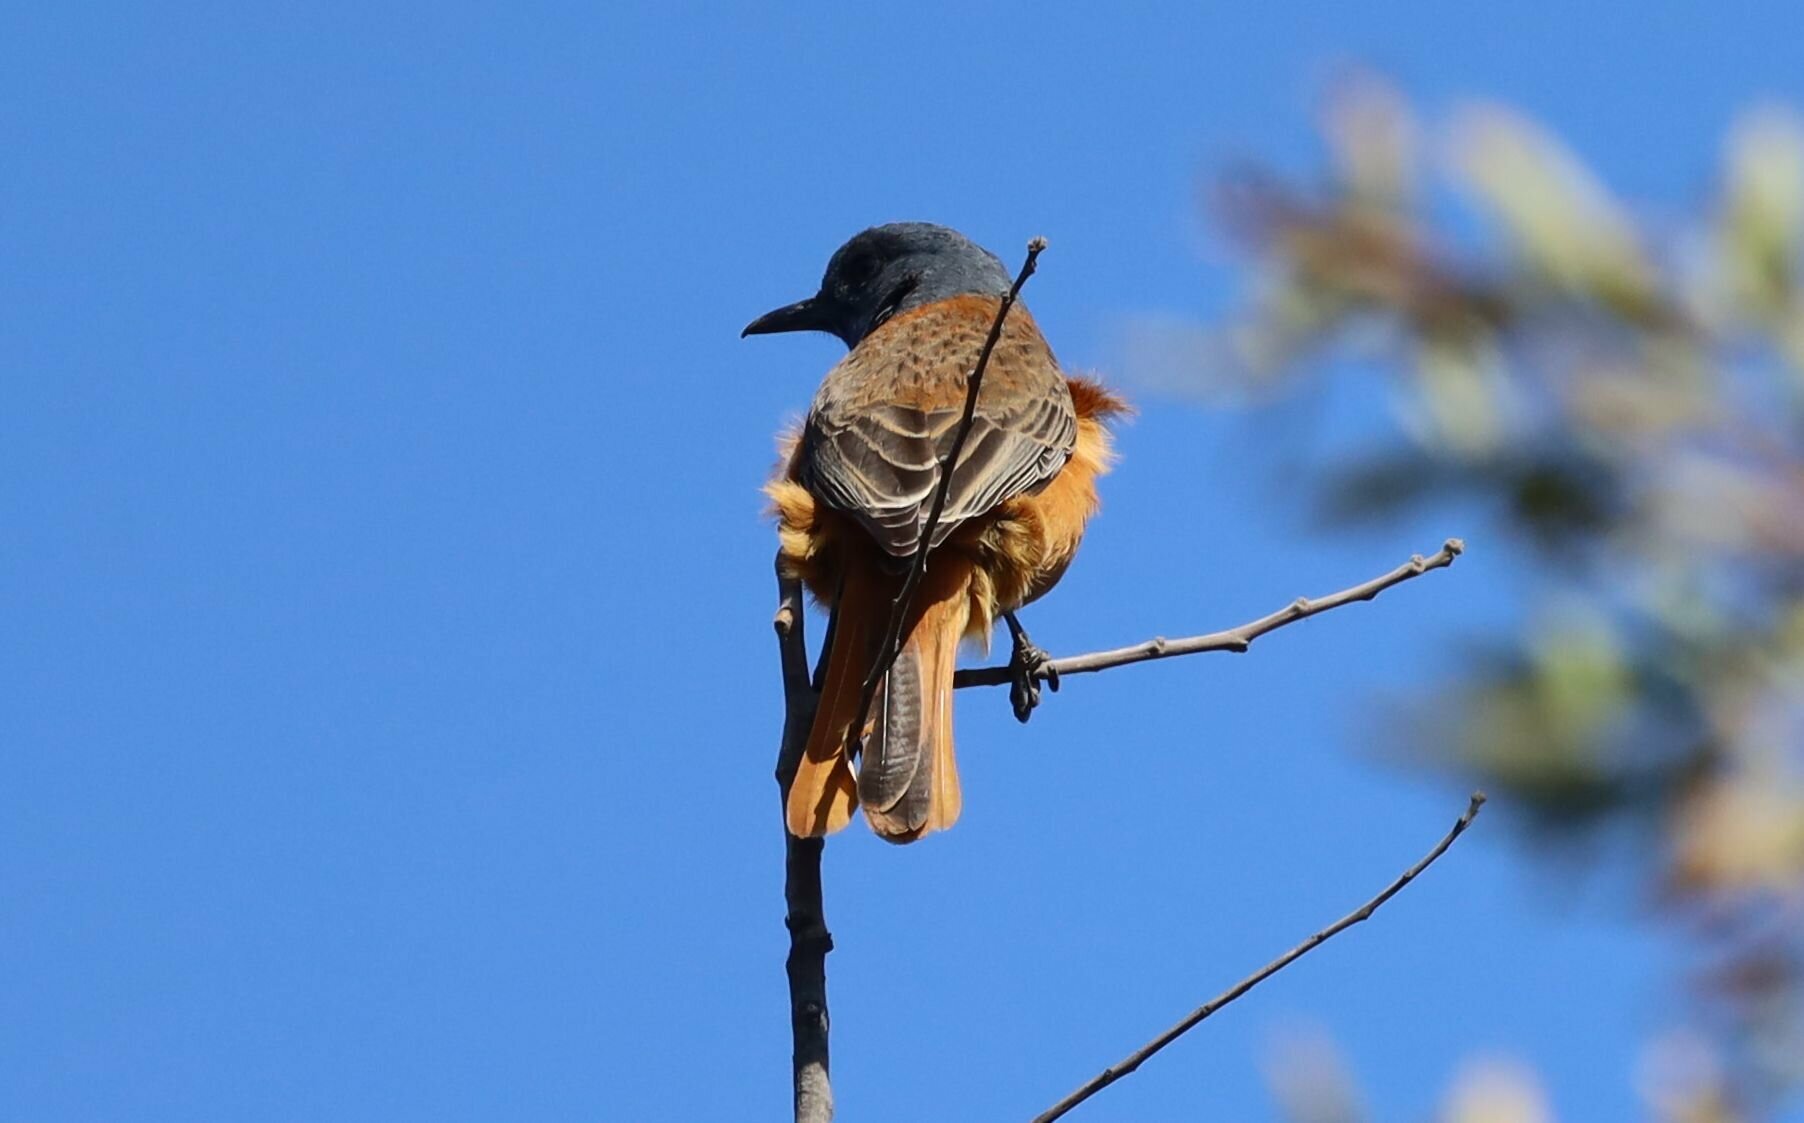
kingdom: Animalia
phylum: Chordata
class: Aves
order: Passeriformes
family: Muscicapidae
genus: Monticola
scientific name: Monticola rupestris
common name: Cape rock thrush
